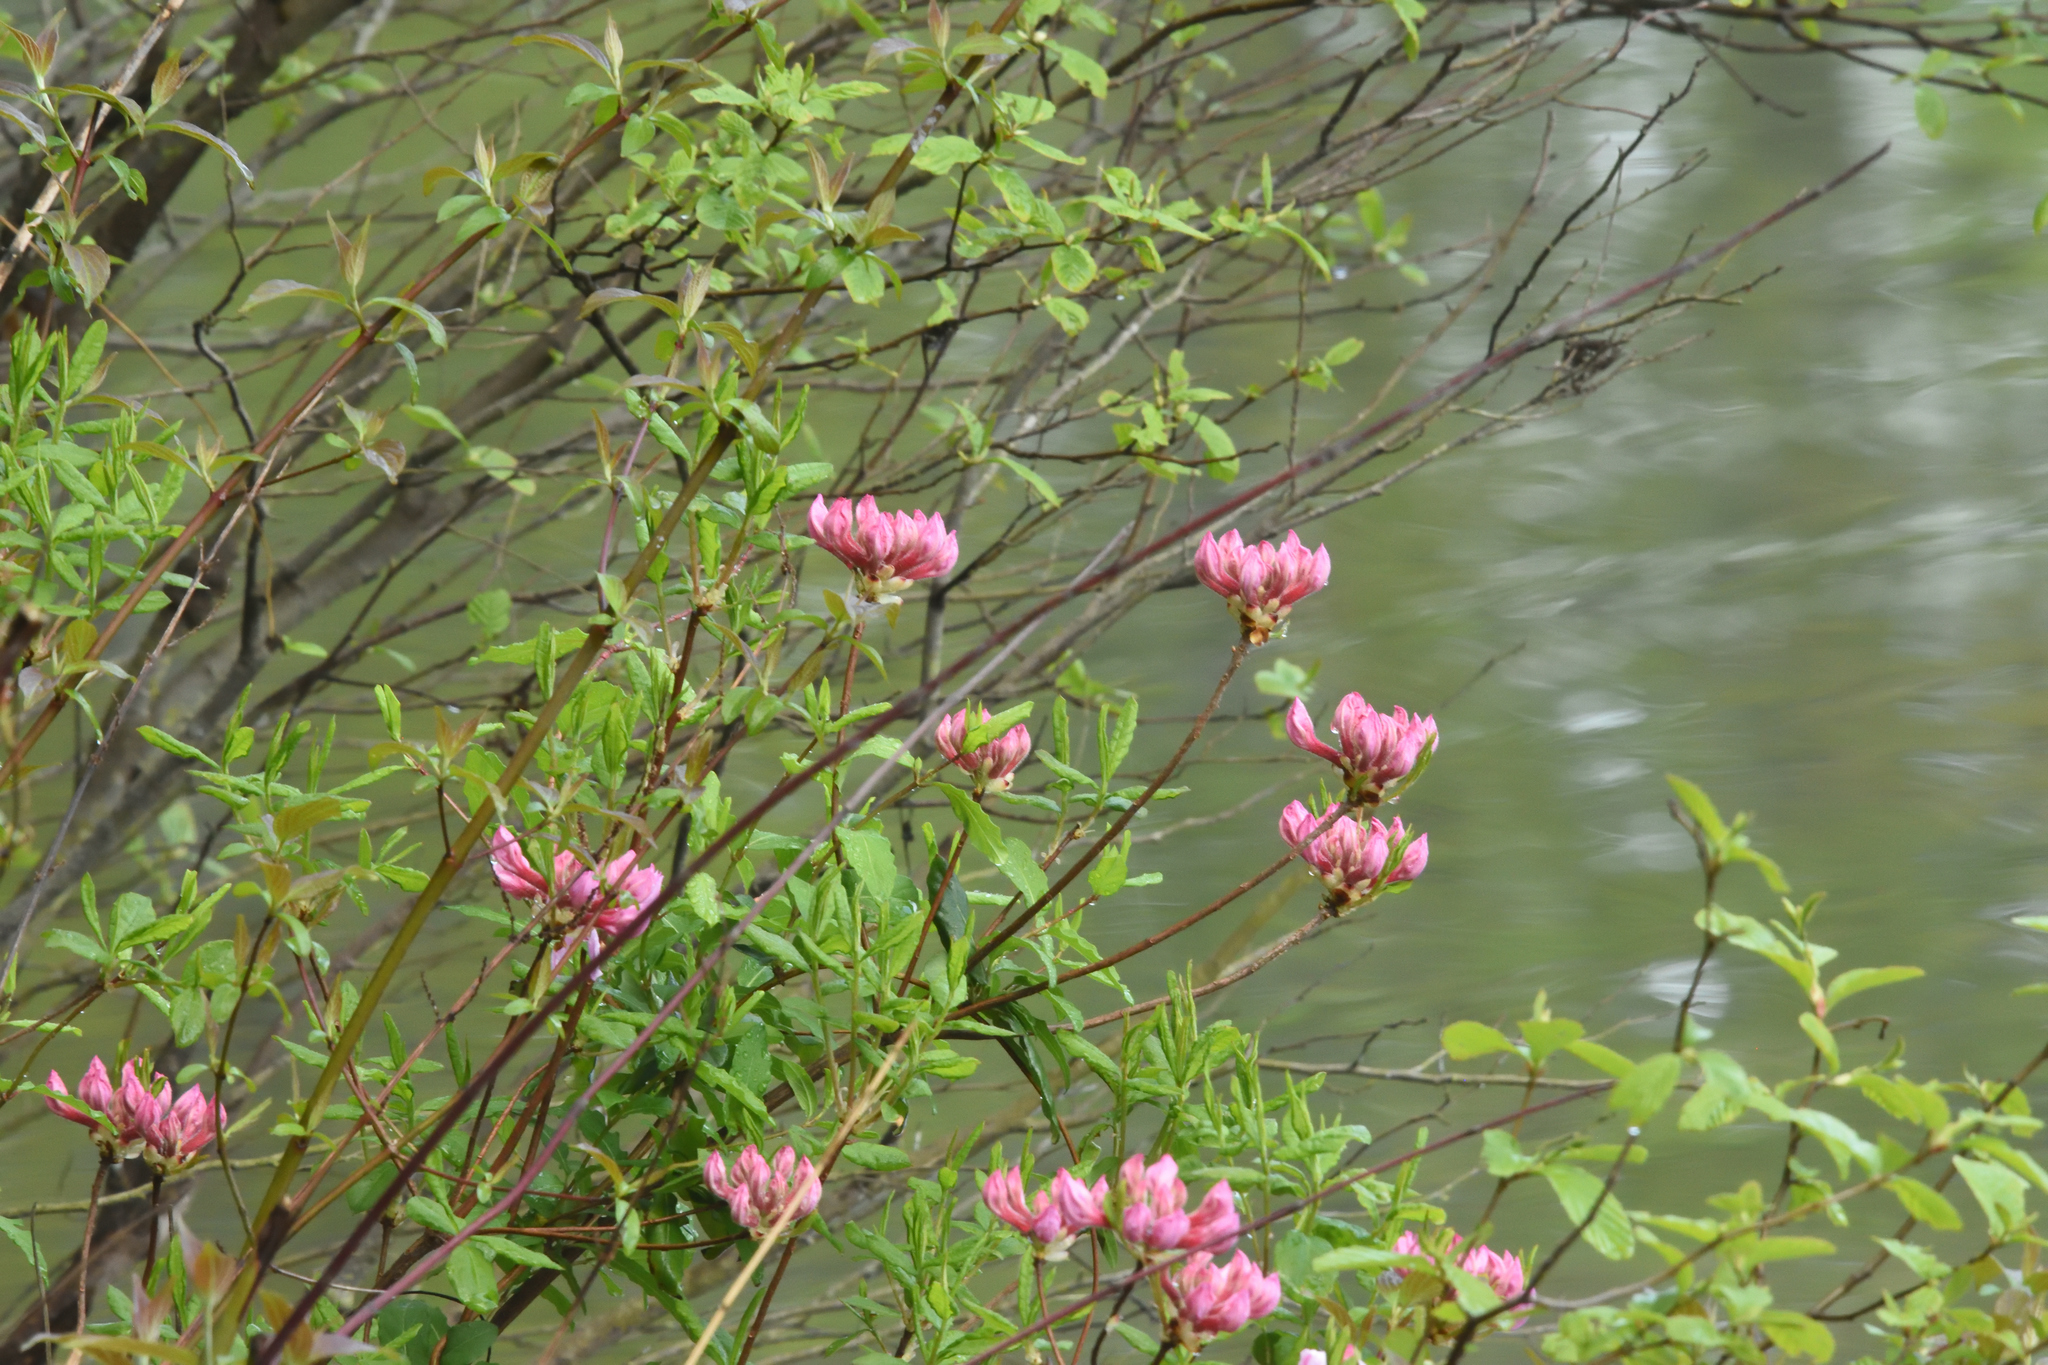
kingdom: Plantae
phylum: Tracheophyta
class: Magnoliopsida
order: Ericales
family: Ericaceae
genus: Rhododendron
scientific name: Rhododendron periclymenoides
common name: Election-pink
